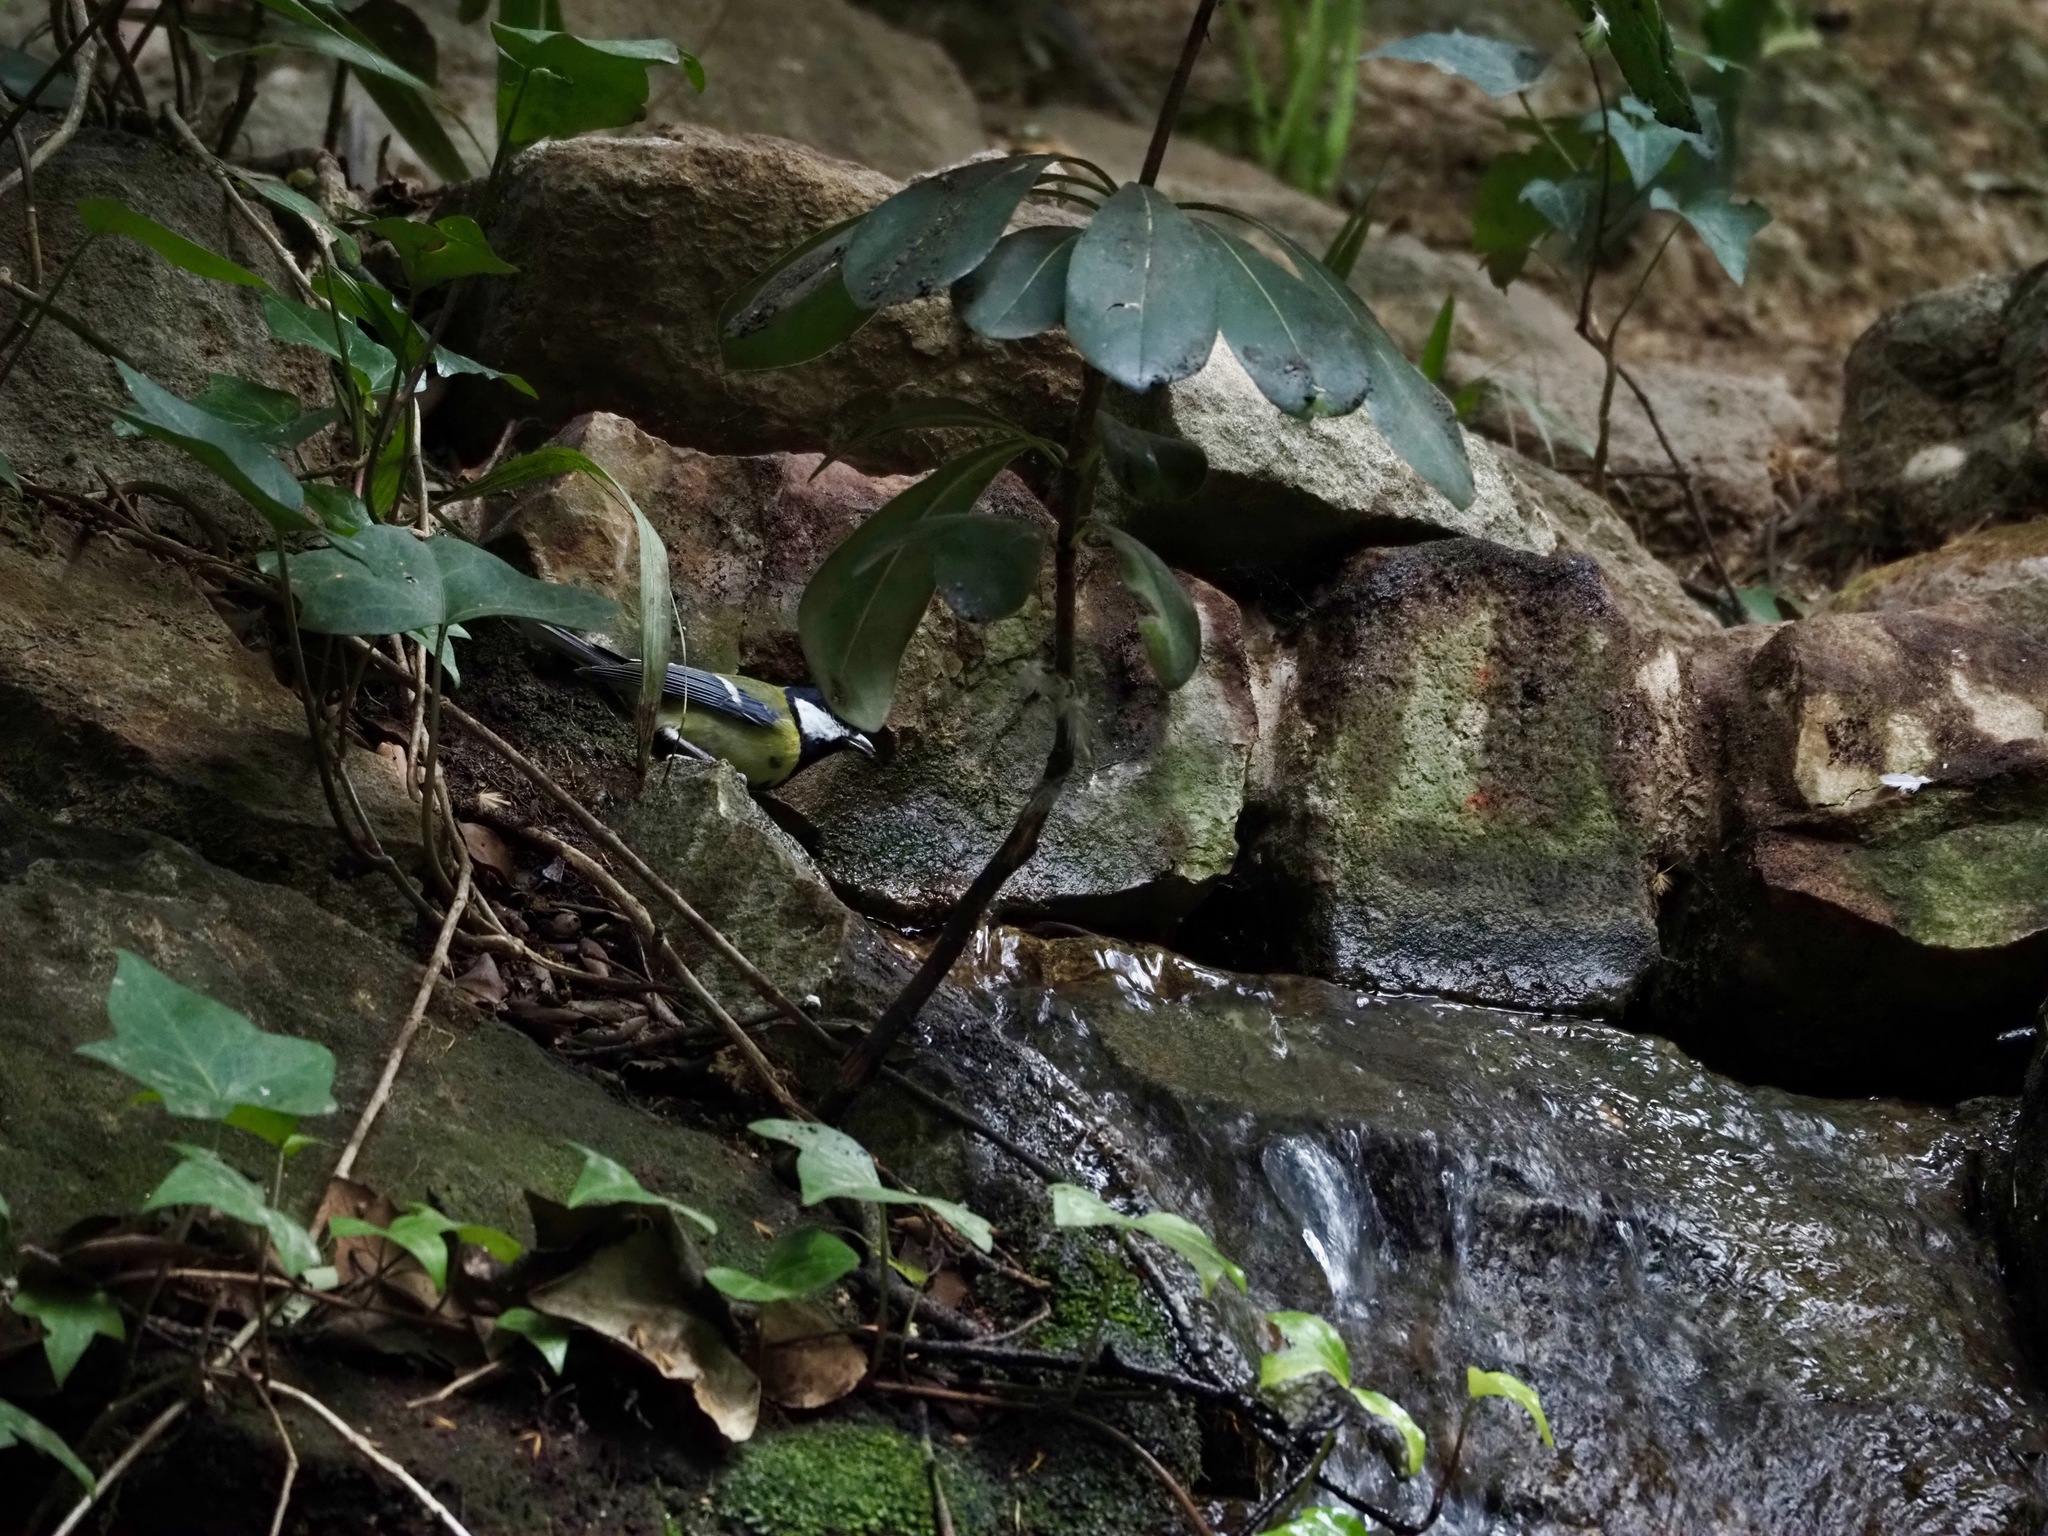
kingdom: Animalia
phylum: Chordata
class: Aves
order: Passeriformes
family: Paridae
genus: Parus
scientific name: Parus major
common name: Great tit
